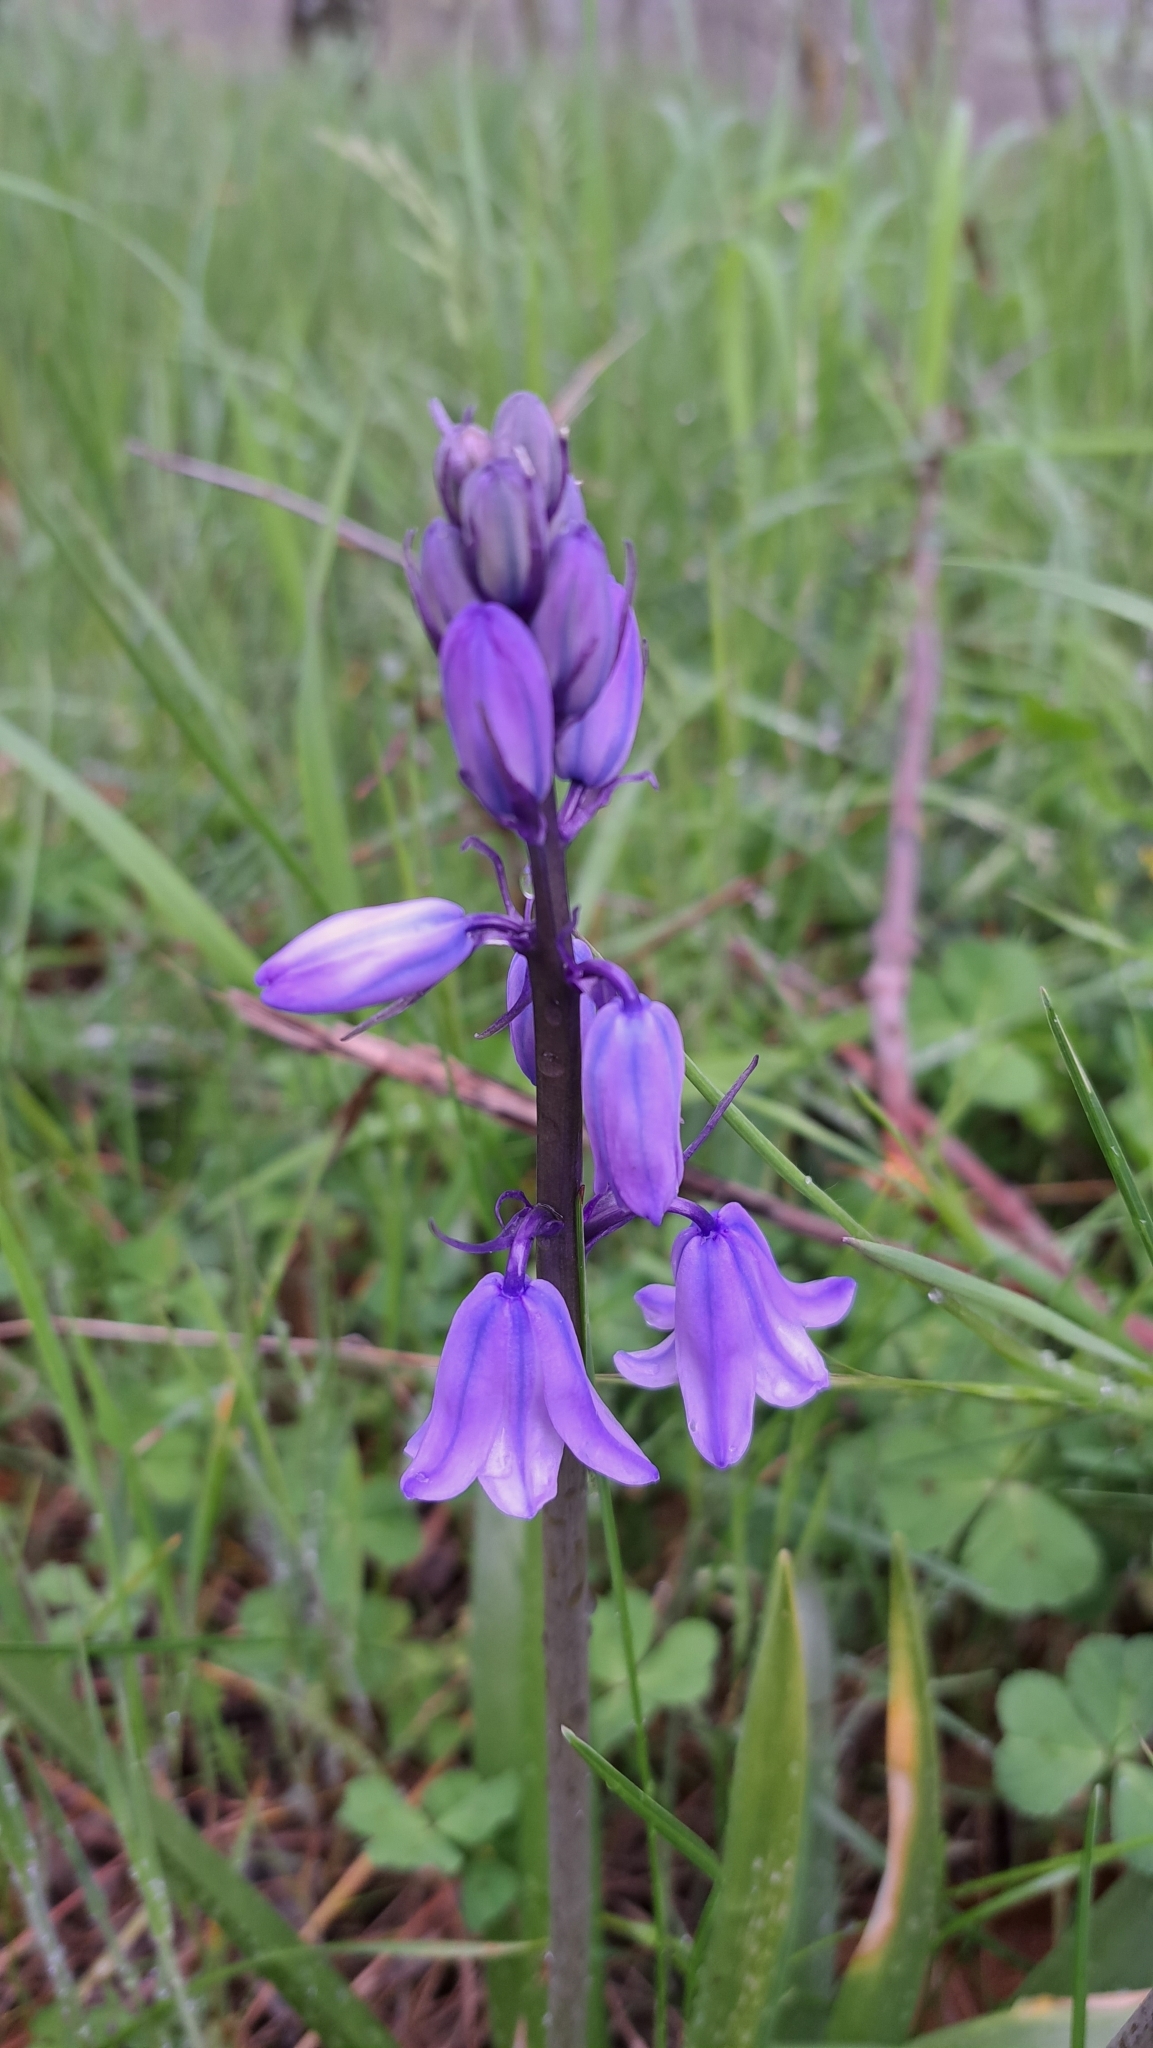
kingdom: Plantae
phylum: Tracheophyta
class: Liliopsida
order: Asparagales
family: Asparagaceae
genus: Hyacinthoides
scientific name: Hyacinthoides hispanica
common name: Spanish bluebell
